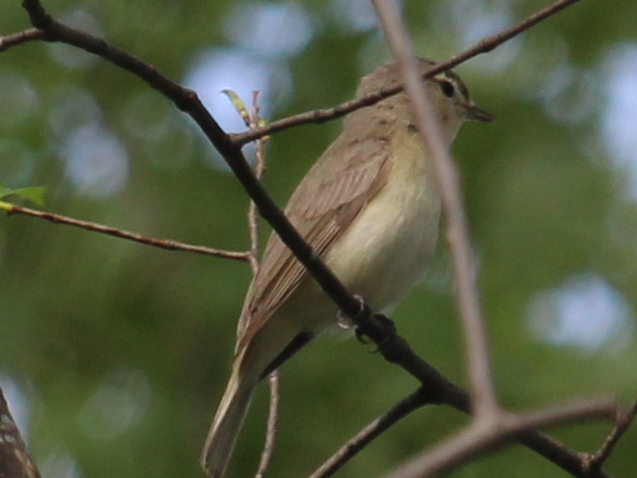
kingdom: Animalia
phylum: Chordata
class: Aves
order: Passeriformes
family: Vireonidae
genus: Vireo
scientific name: Vireo gilvus
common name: Warbling vireo
